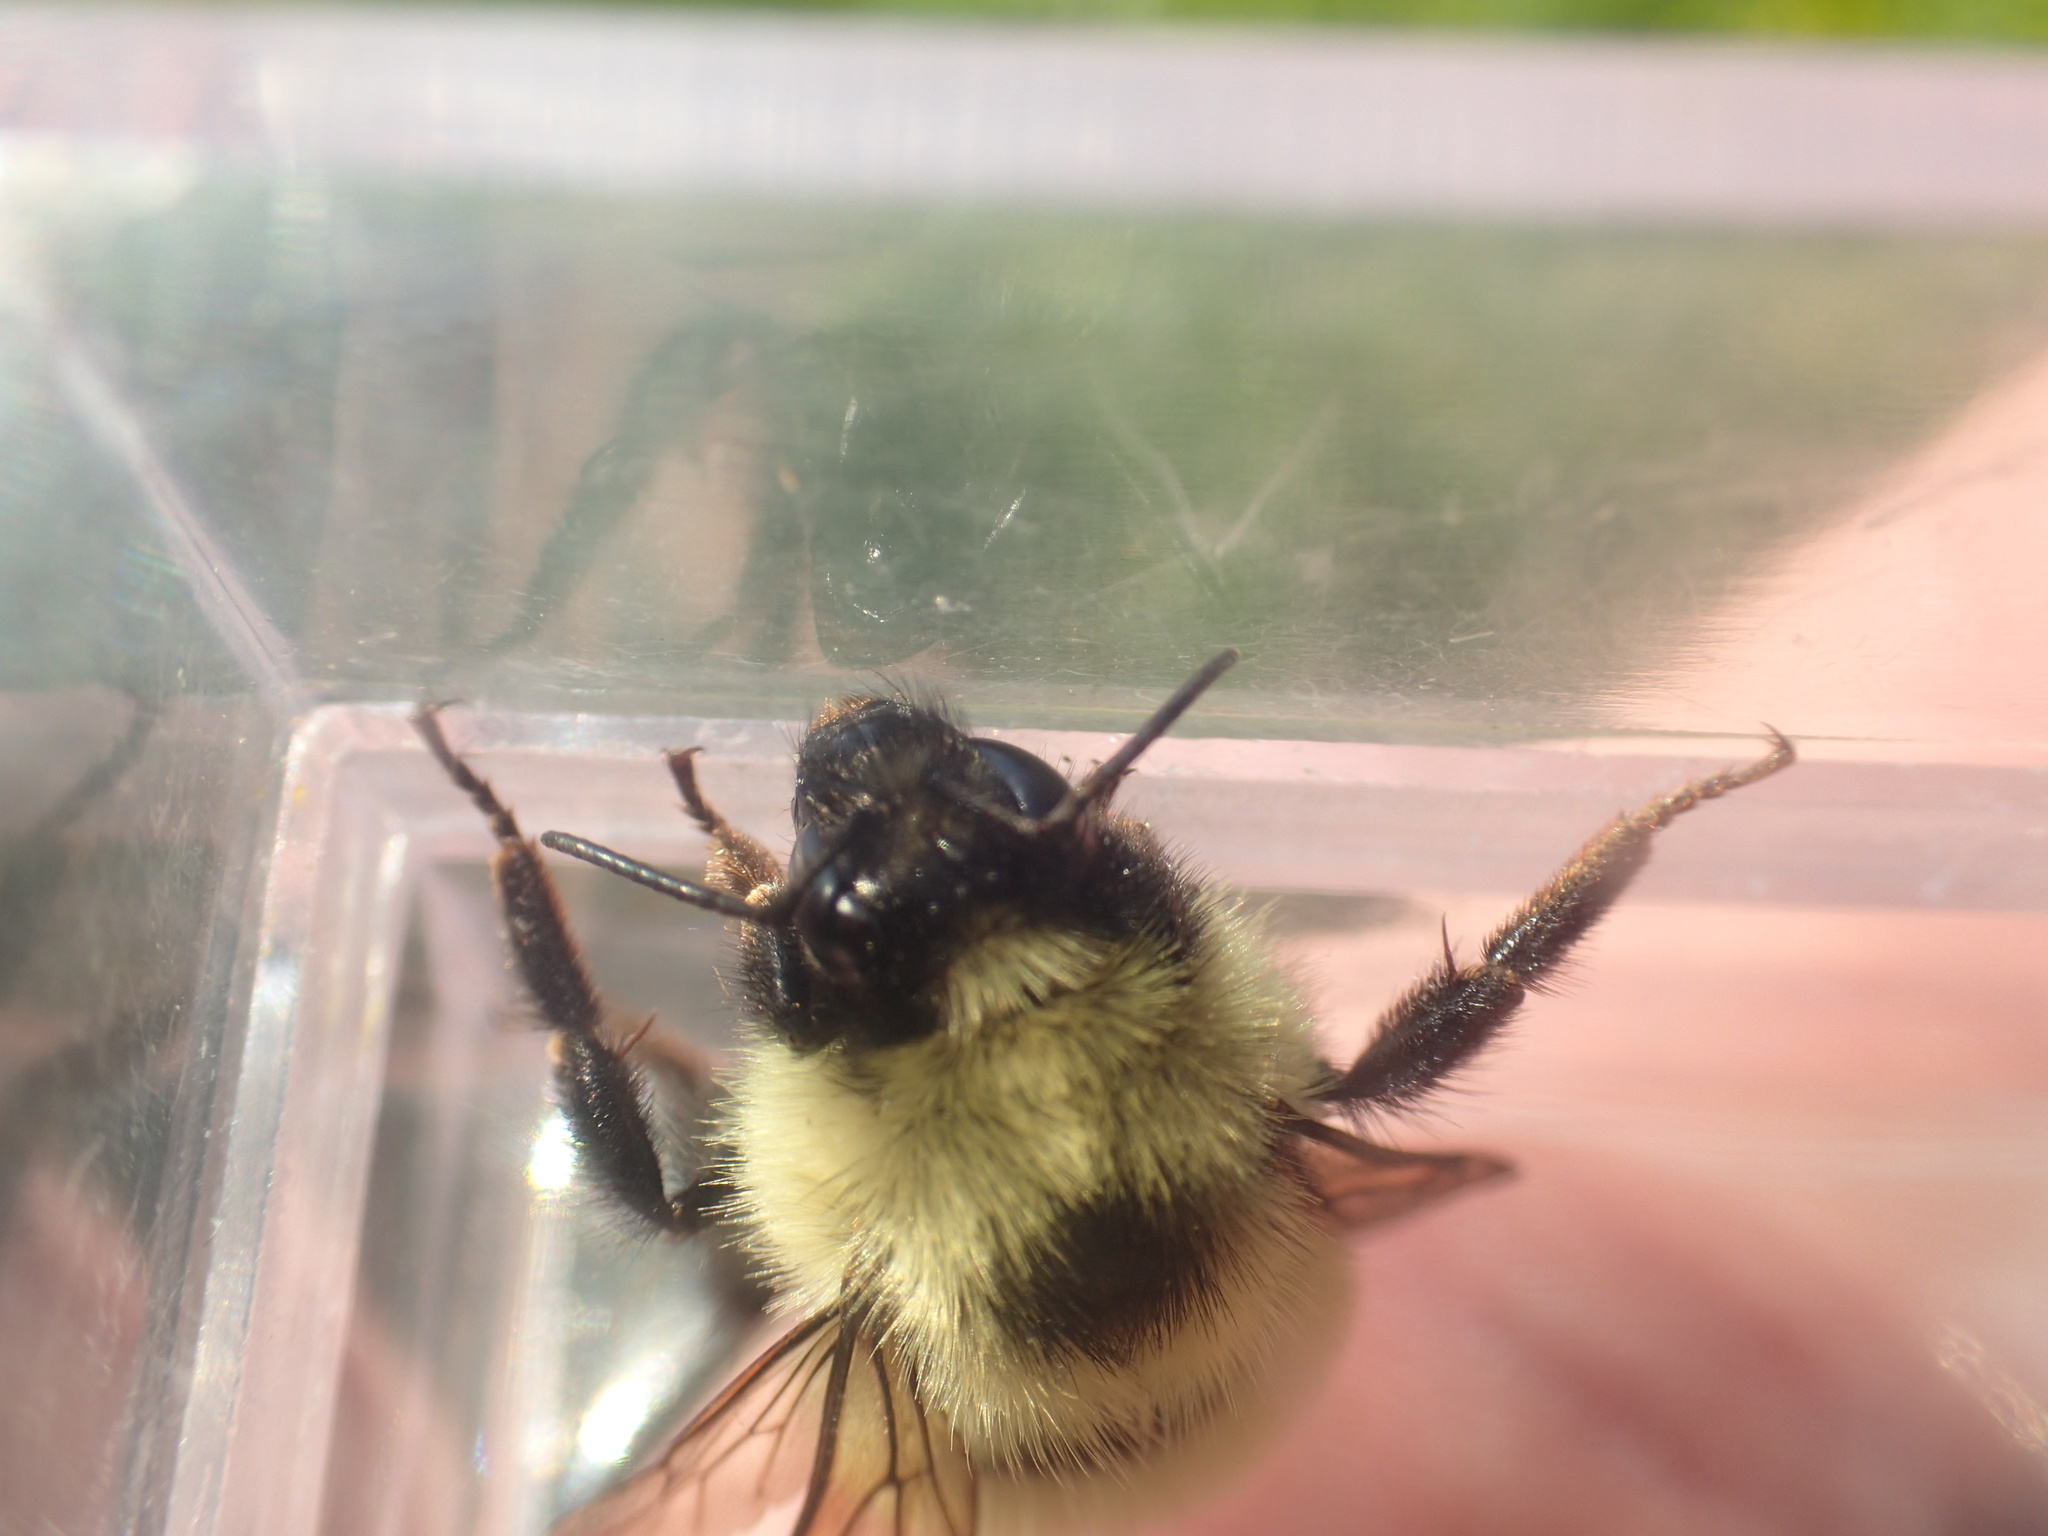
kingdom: Animalia
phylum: Arthropoda
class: Insecta
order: Hymenoptera
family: Apidae
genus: Bombus
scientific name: Bombus vagans
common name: Half-black bumble bee
